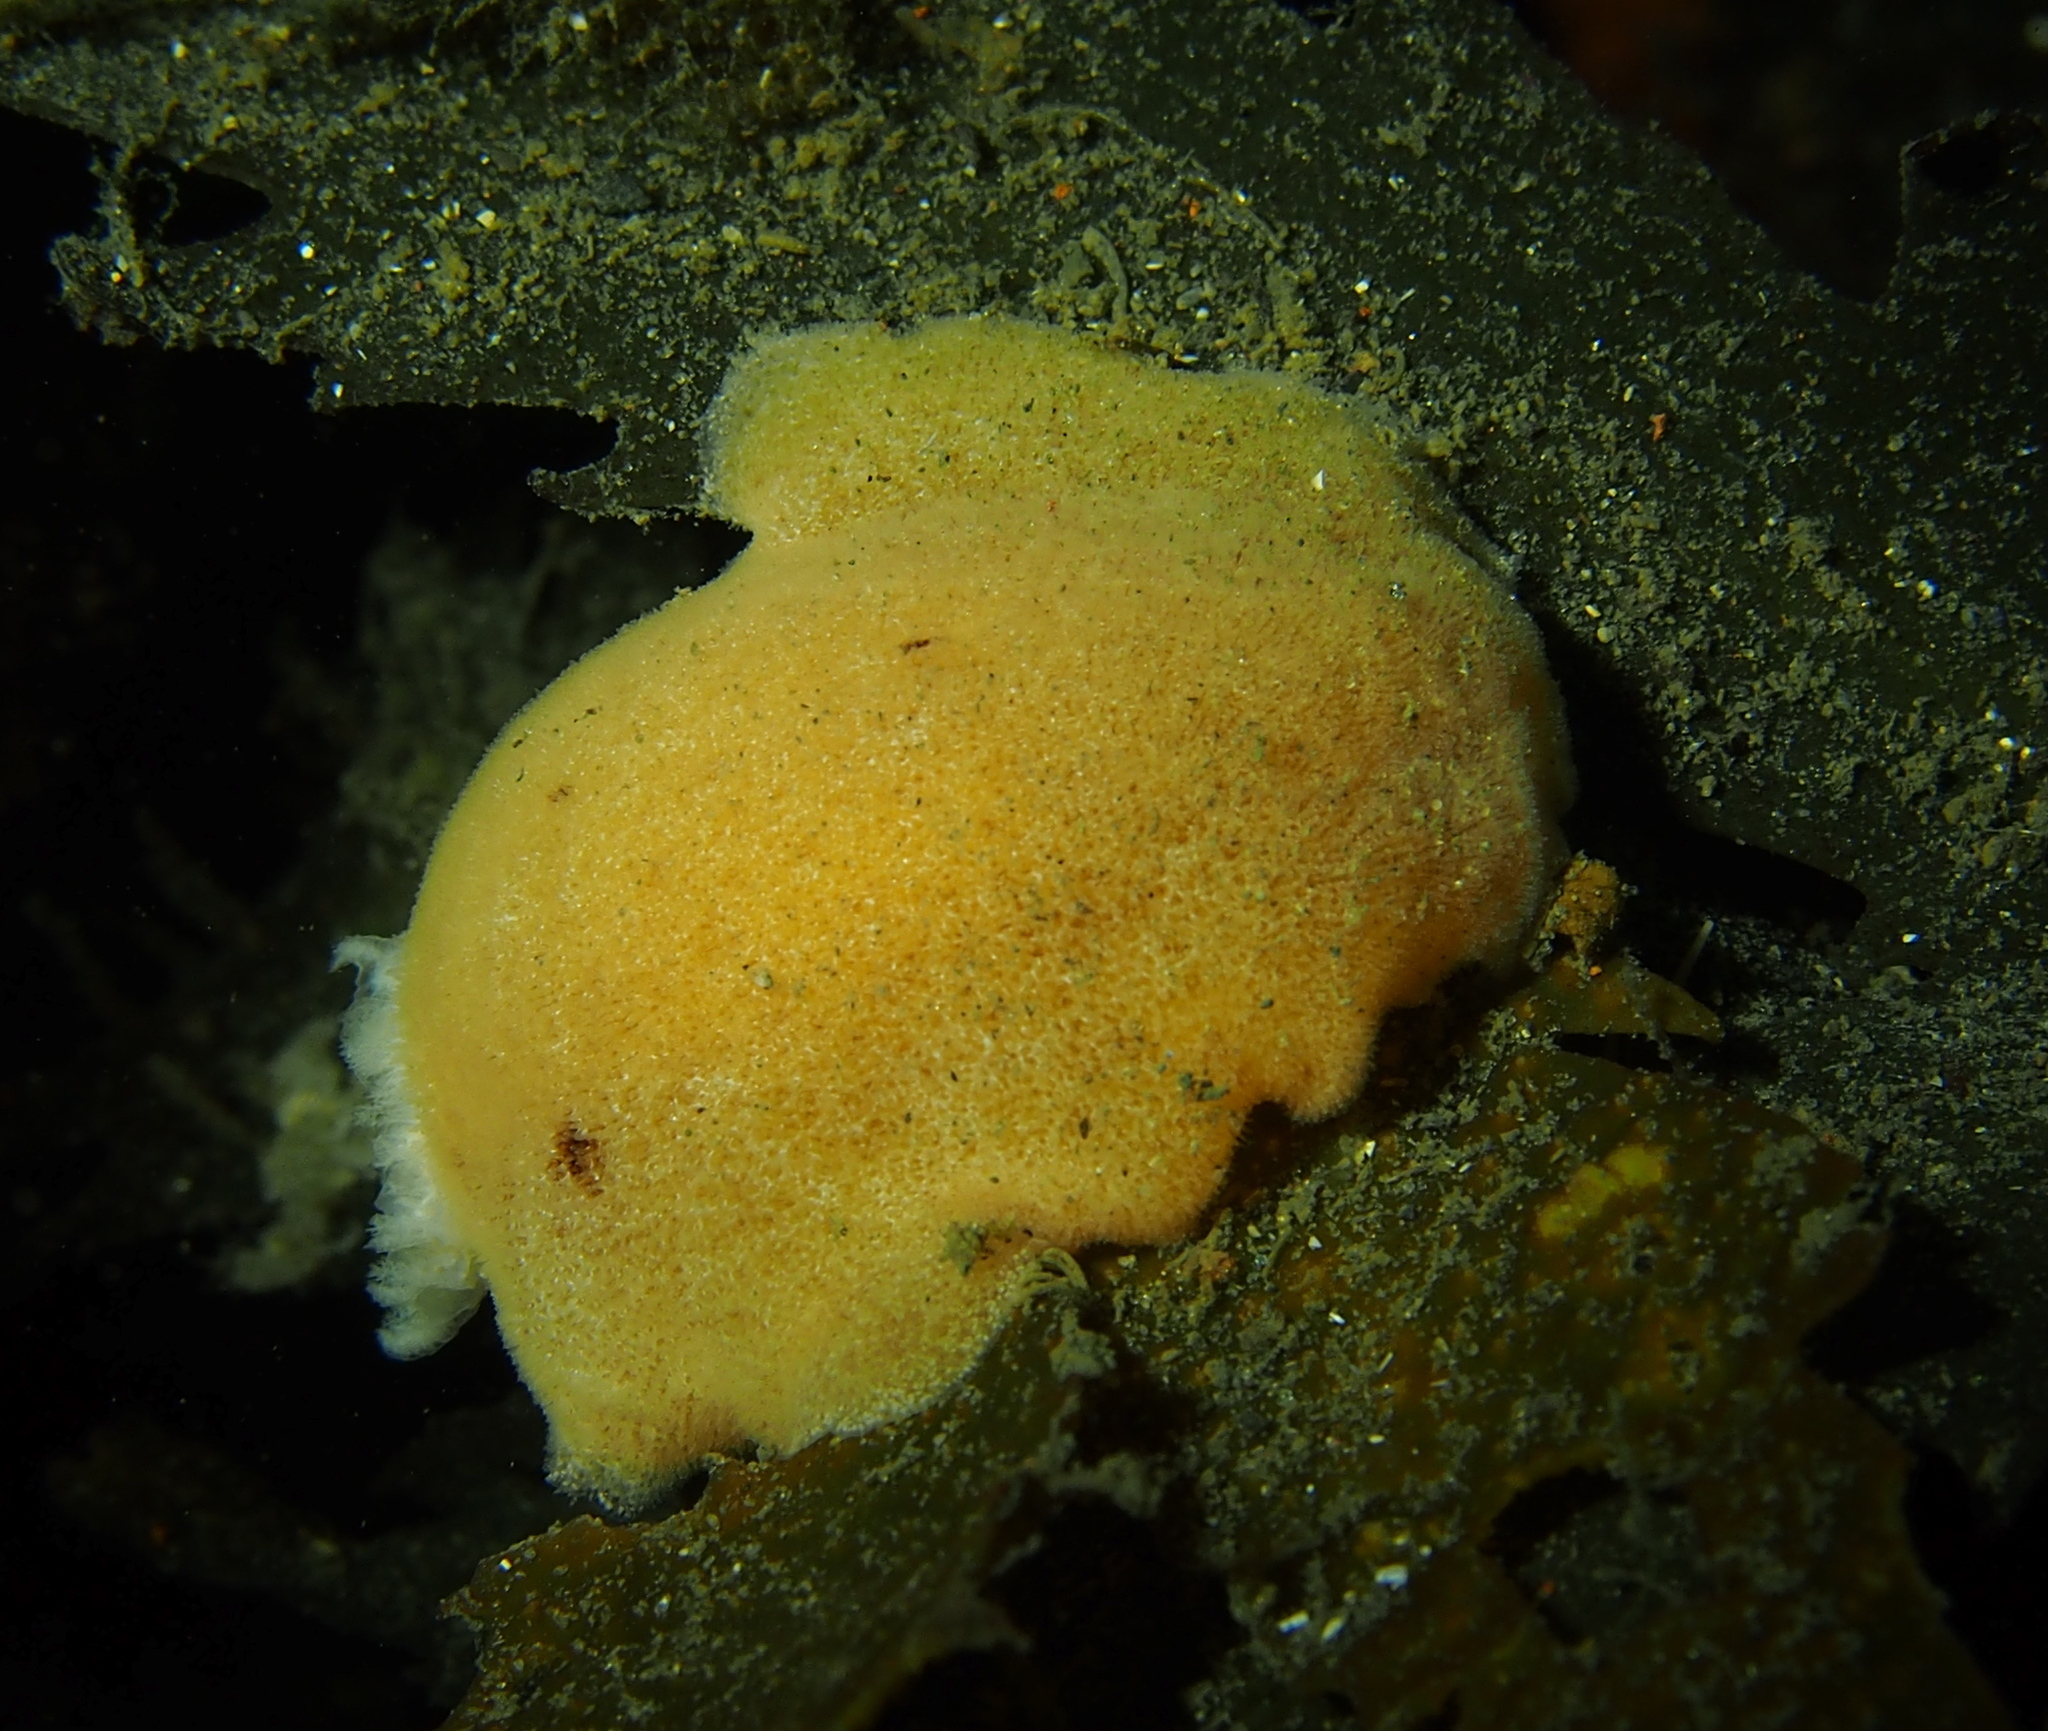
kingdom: Animalia
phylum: Mollusca
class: Gastropoda
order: Nudibranchia
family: Discodorididae
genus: Jorunna
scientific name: Jorunna tomentosa
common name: Grey sea slug
